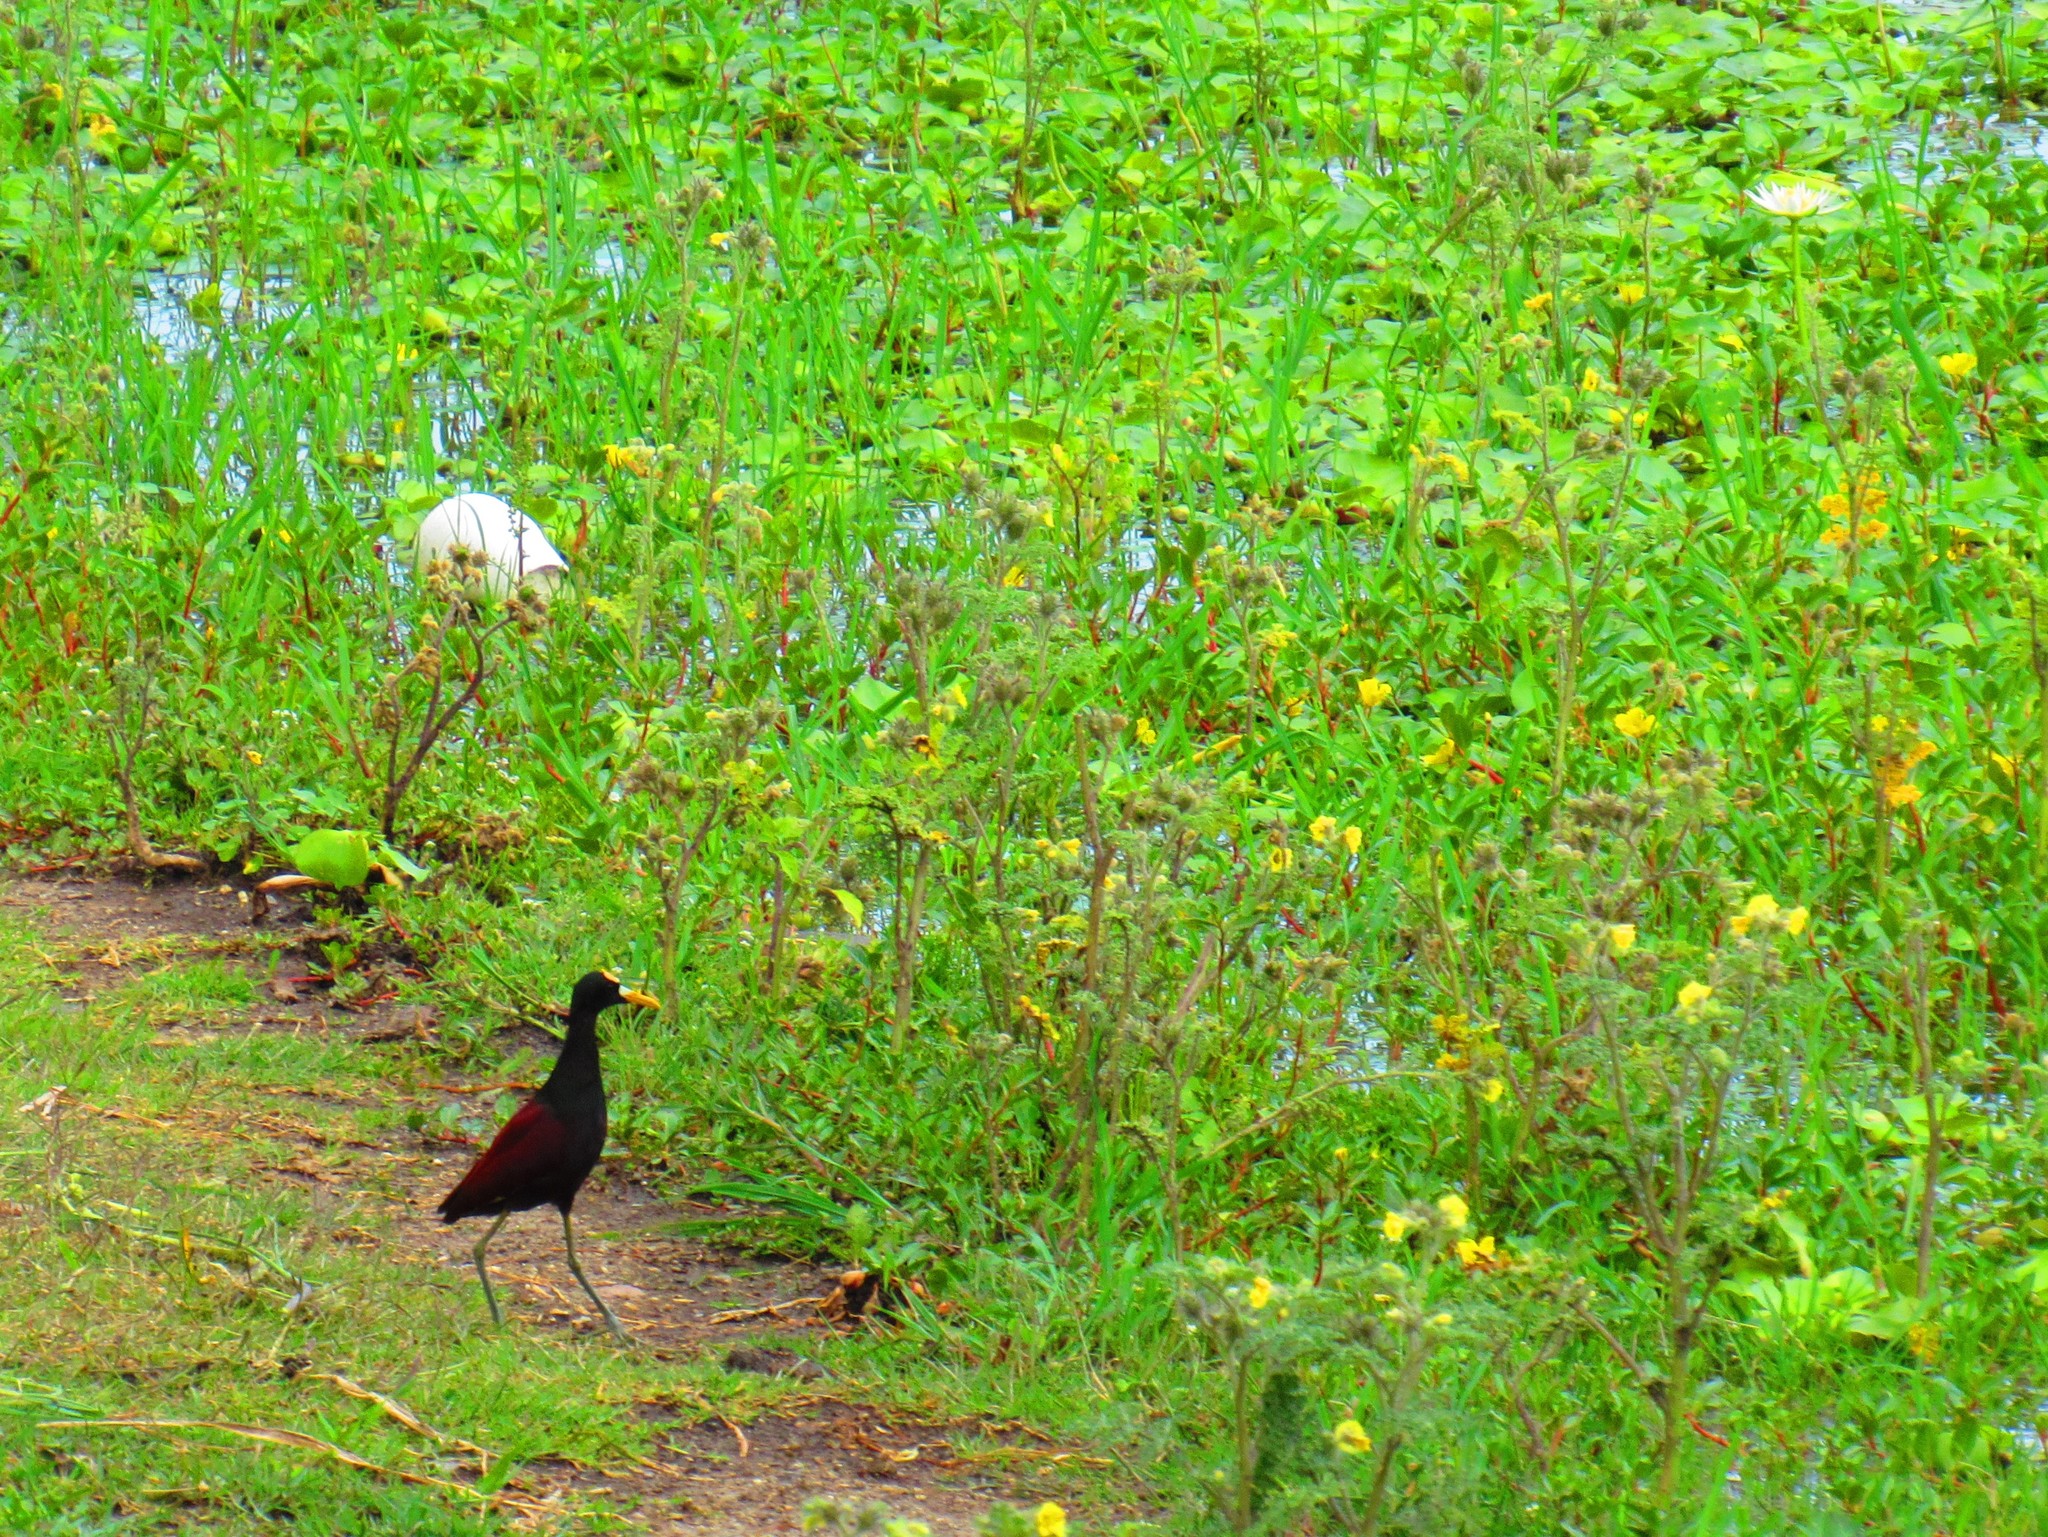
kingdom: Animalia
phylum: Chordata
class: Aves
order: Charadriiformes
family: Jacanidae
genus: Jacana
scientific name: Jacana spinosa
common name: Northern jacana
